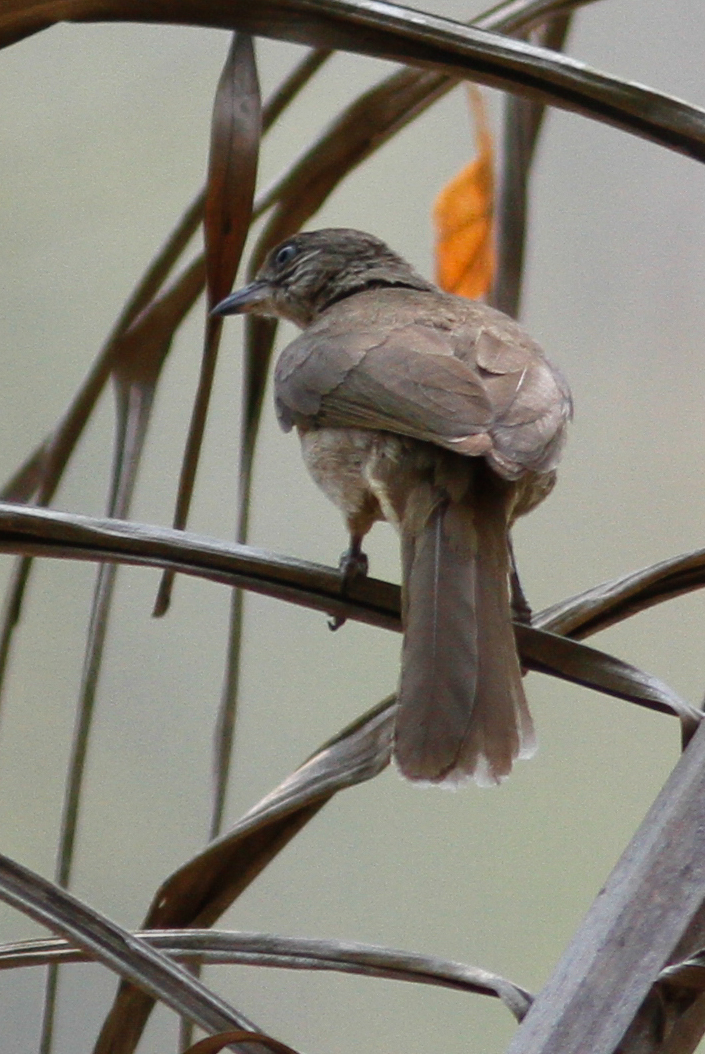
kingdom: Animalia
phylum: Chordata
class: Aves
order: Passeriformes
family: Pycnonotidae
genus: Pycnonotus
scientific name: Pycnonotus blanfordi
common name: Streak-eared bulbul
